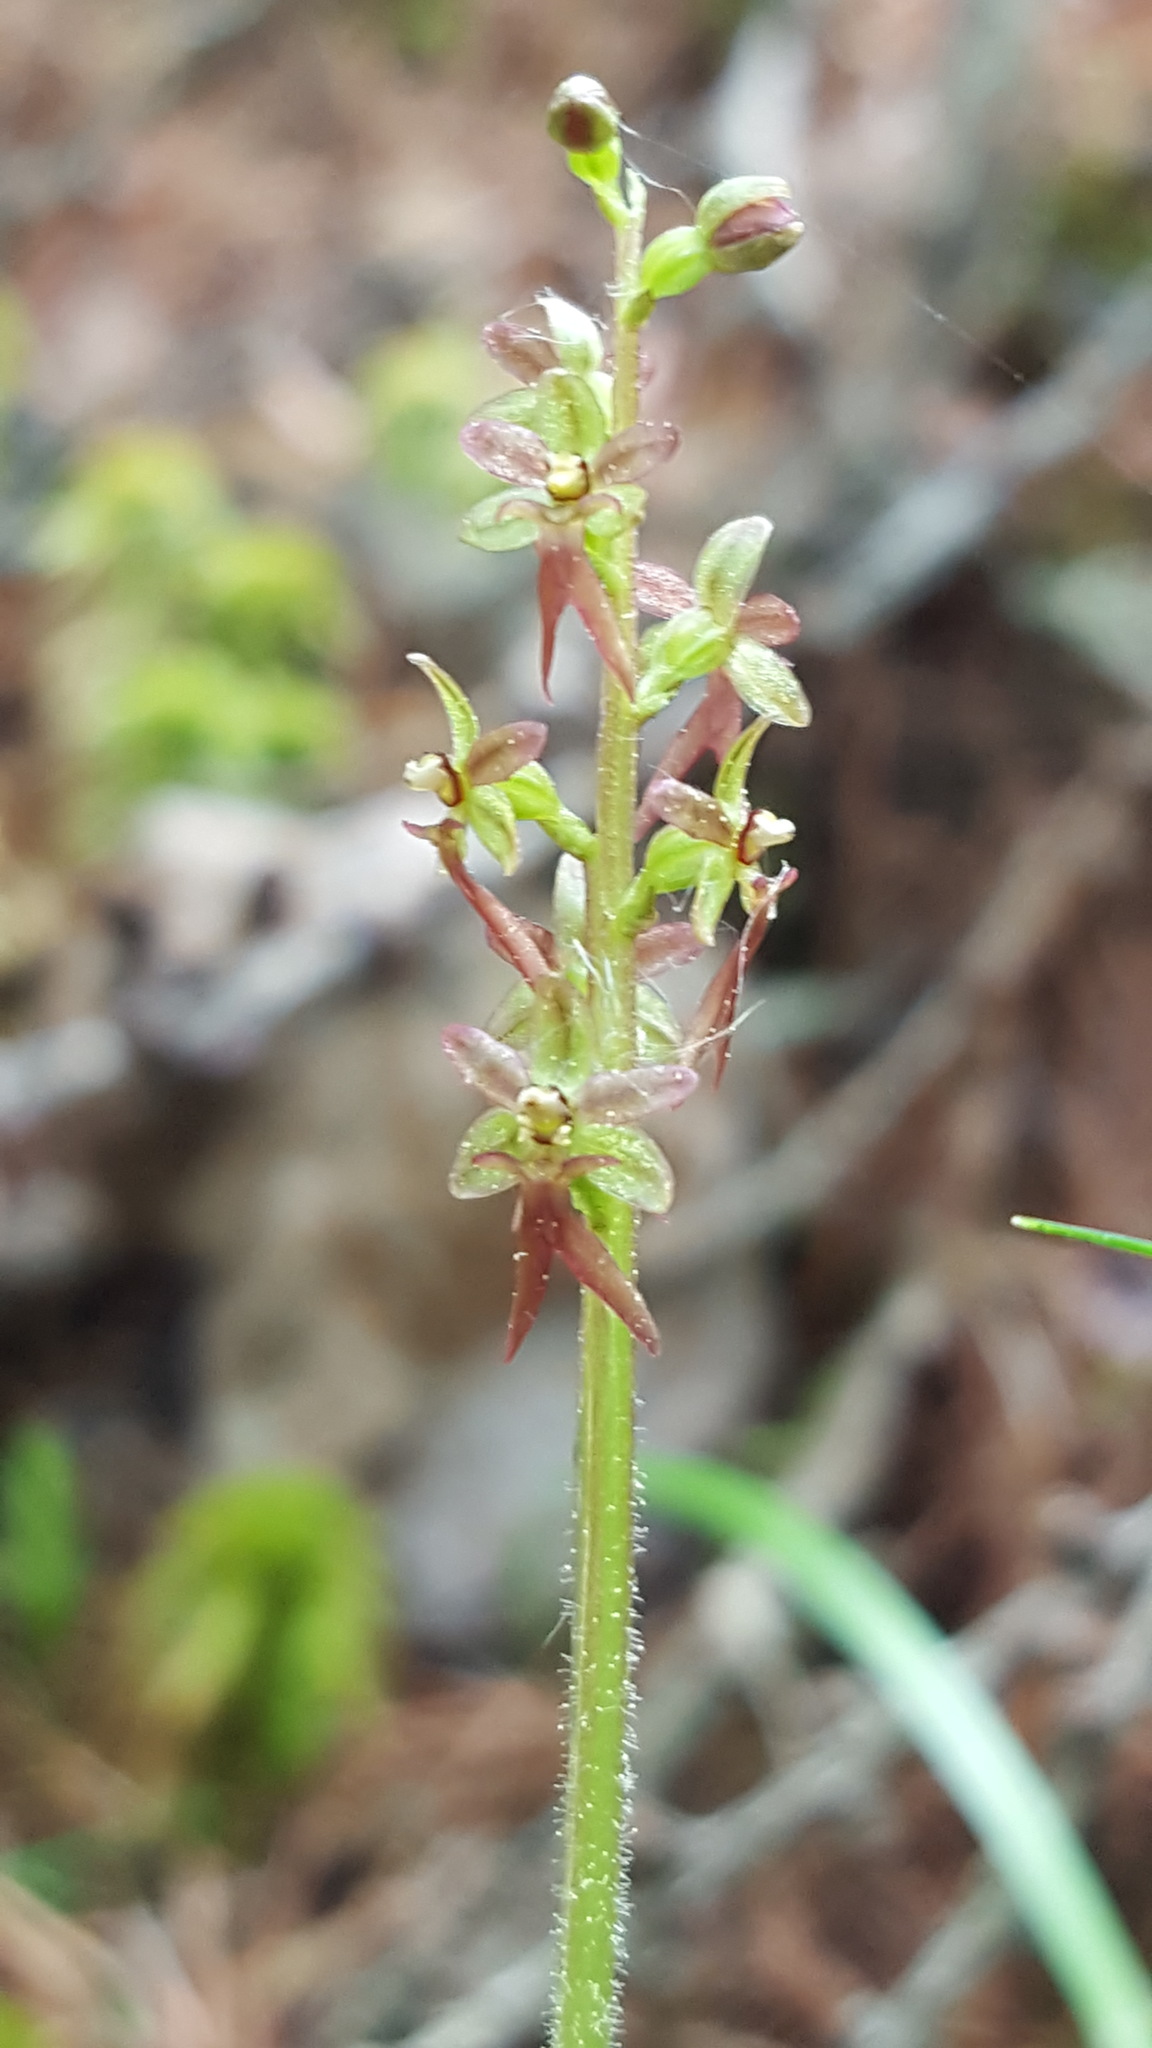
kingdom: Plantae
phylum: Tracheophyta
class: Liliopsida
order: Asparagales
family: Orchidaceae
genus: Neottia
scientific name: Neottia cordata
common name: Lesser twayblade
